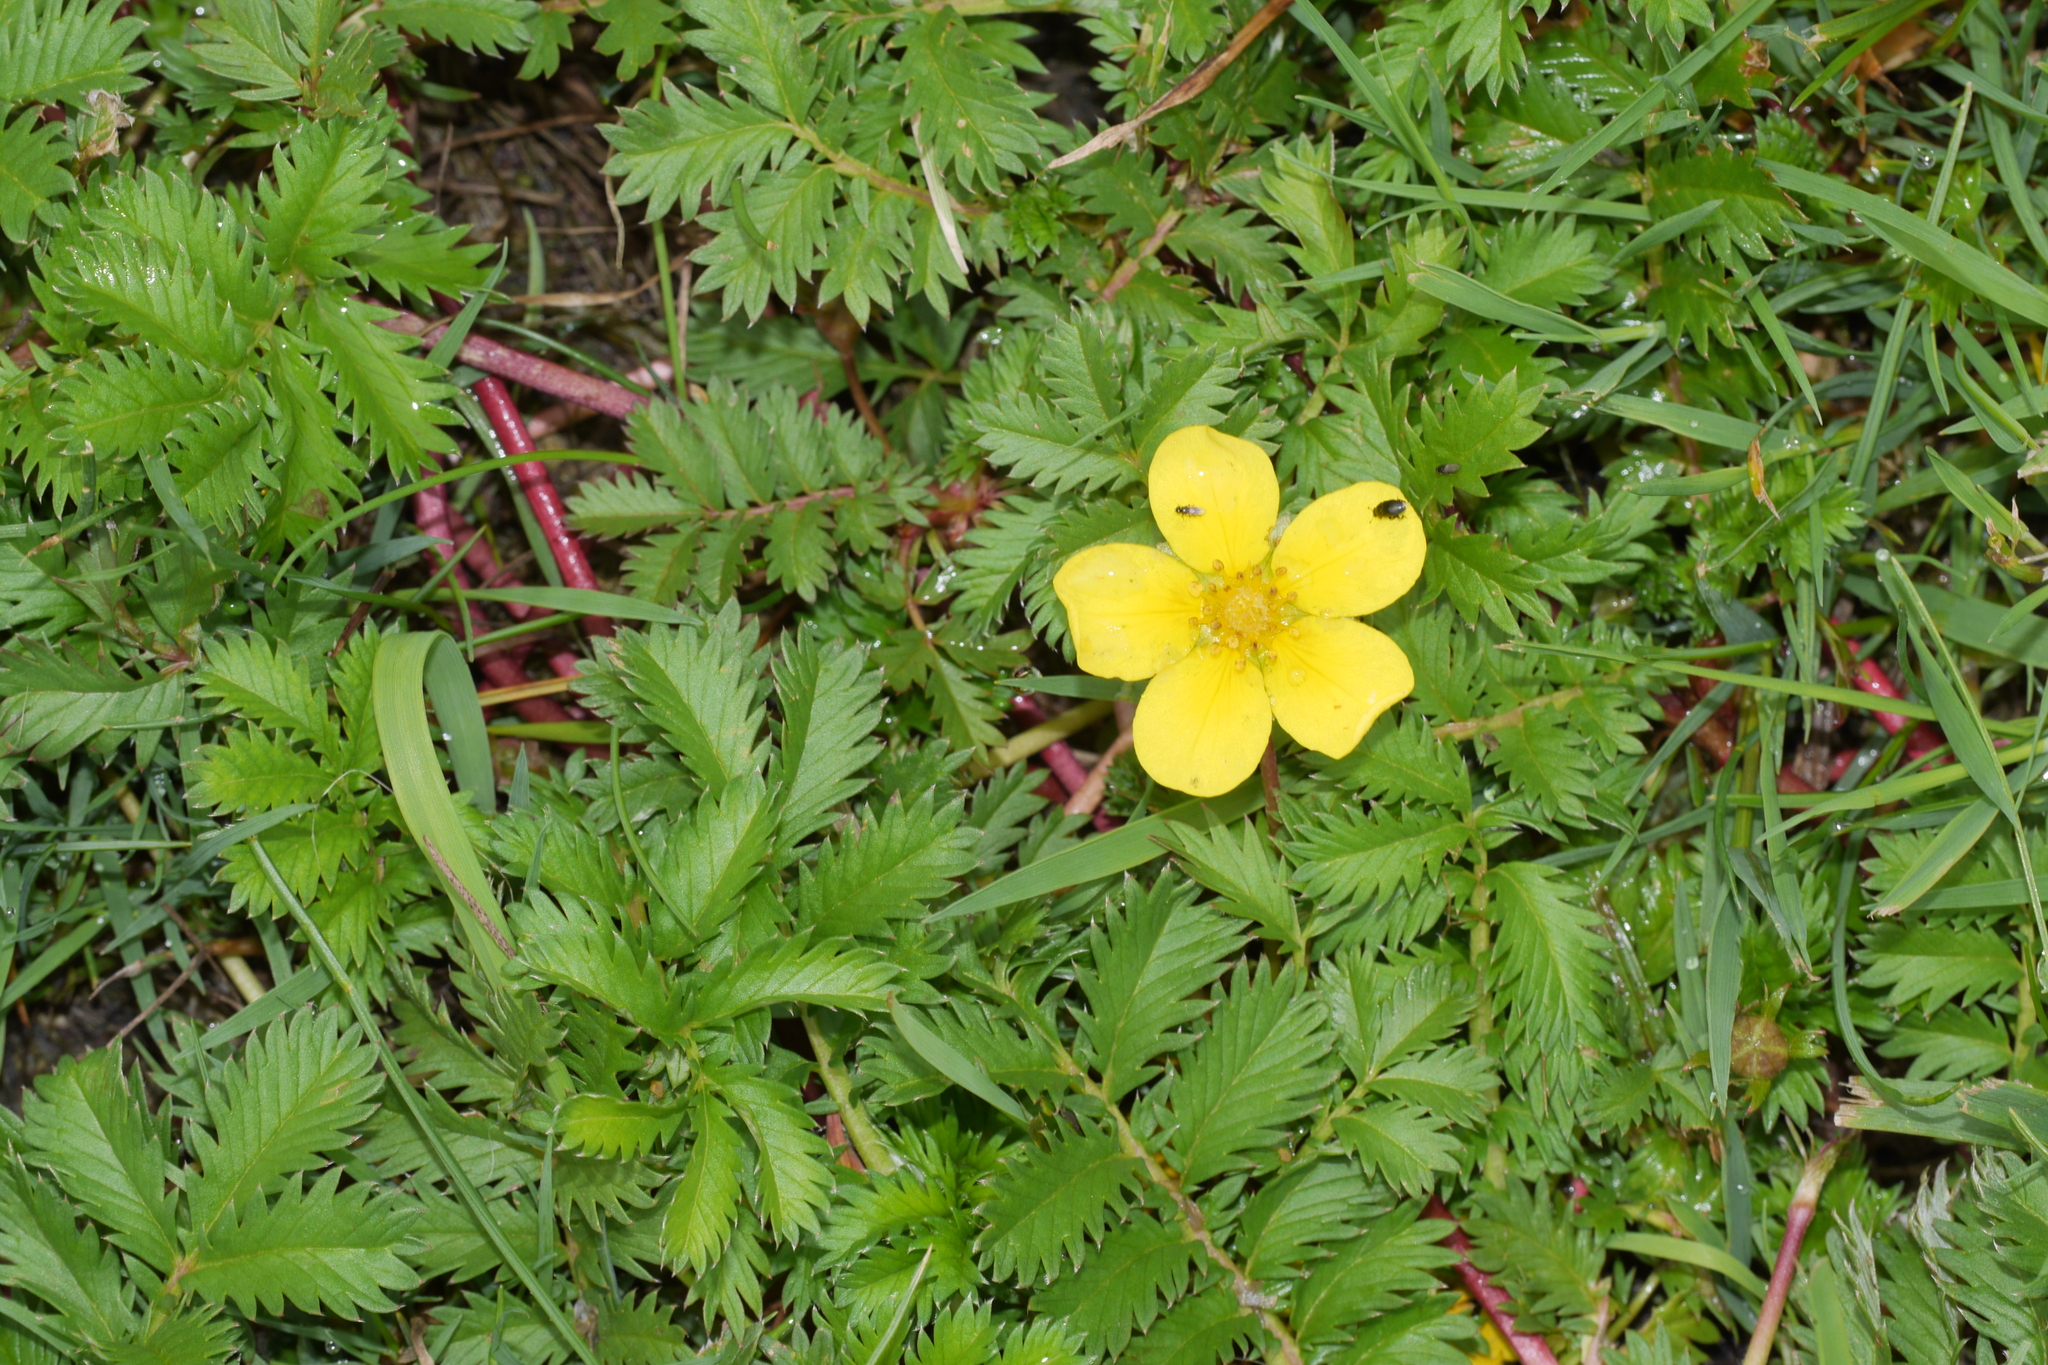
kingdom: Plantae
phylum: Tracheophyta
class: Magnoliopsida
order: Rosales
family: Rosaceae
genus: Argentina
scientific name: Argentina anserina
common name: Common silverweed
